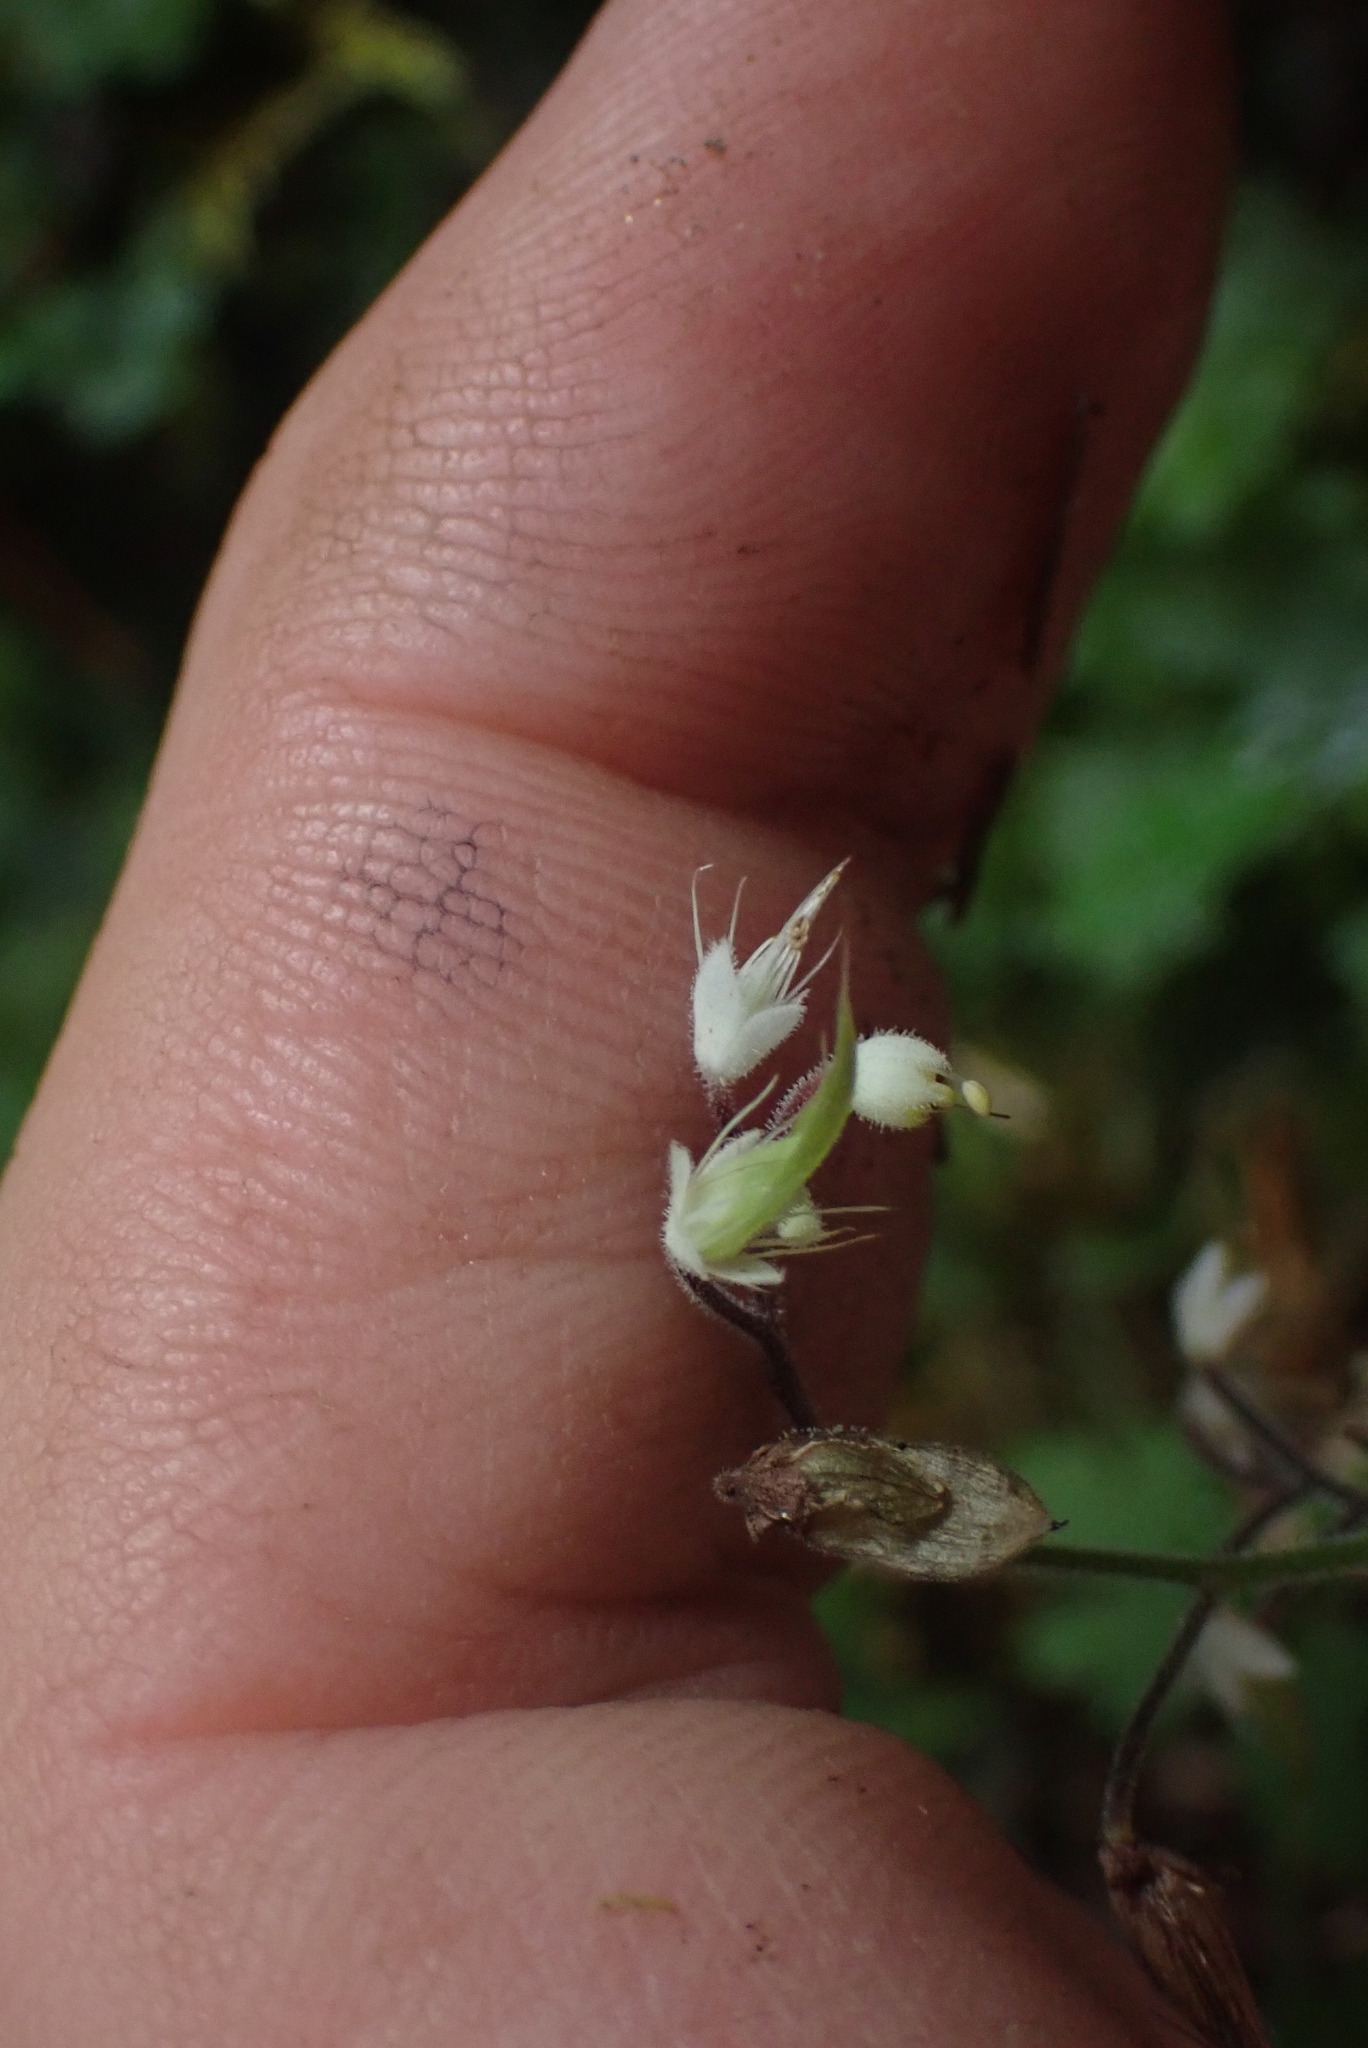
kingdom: Plantae
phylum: Tracheophyta
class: Magnoliopsida
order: Saxifragales
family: Saxifragaceae
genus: Tiarella
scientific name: Tiarella trifoliata
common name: Sugar-scoop
